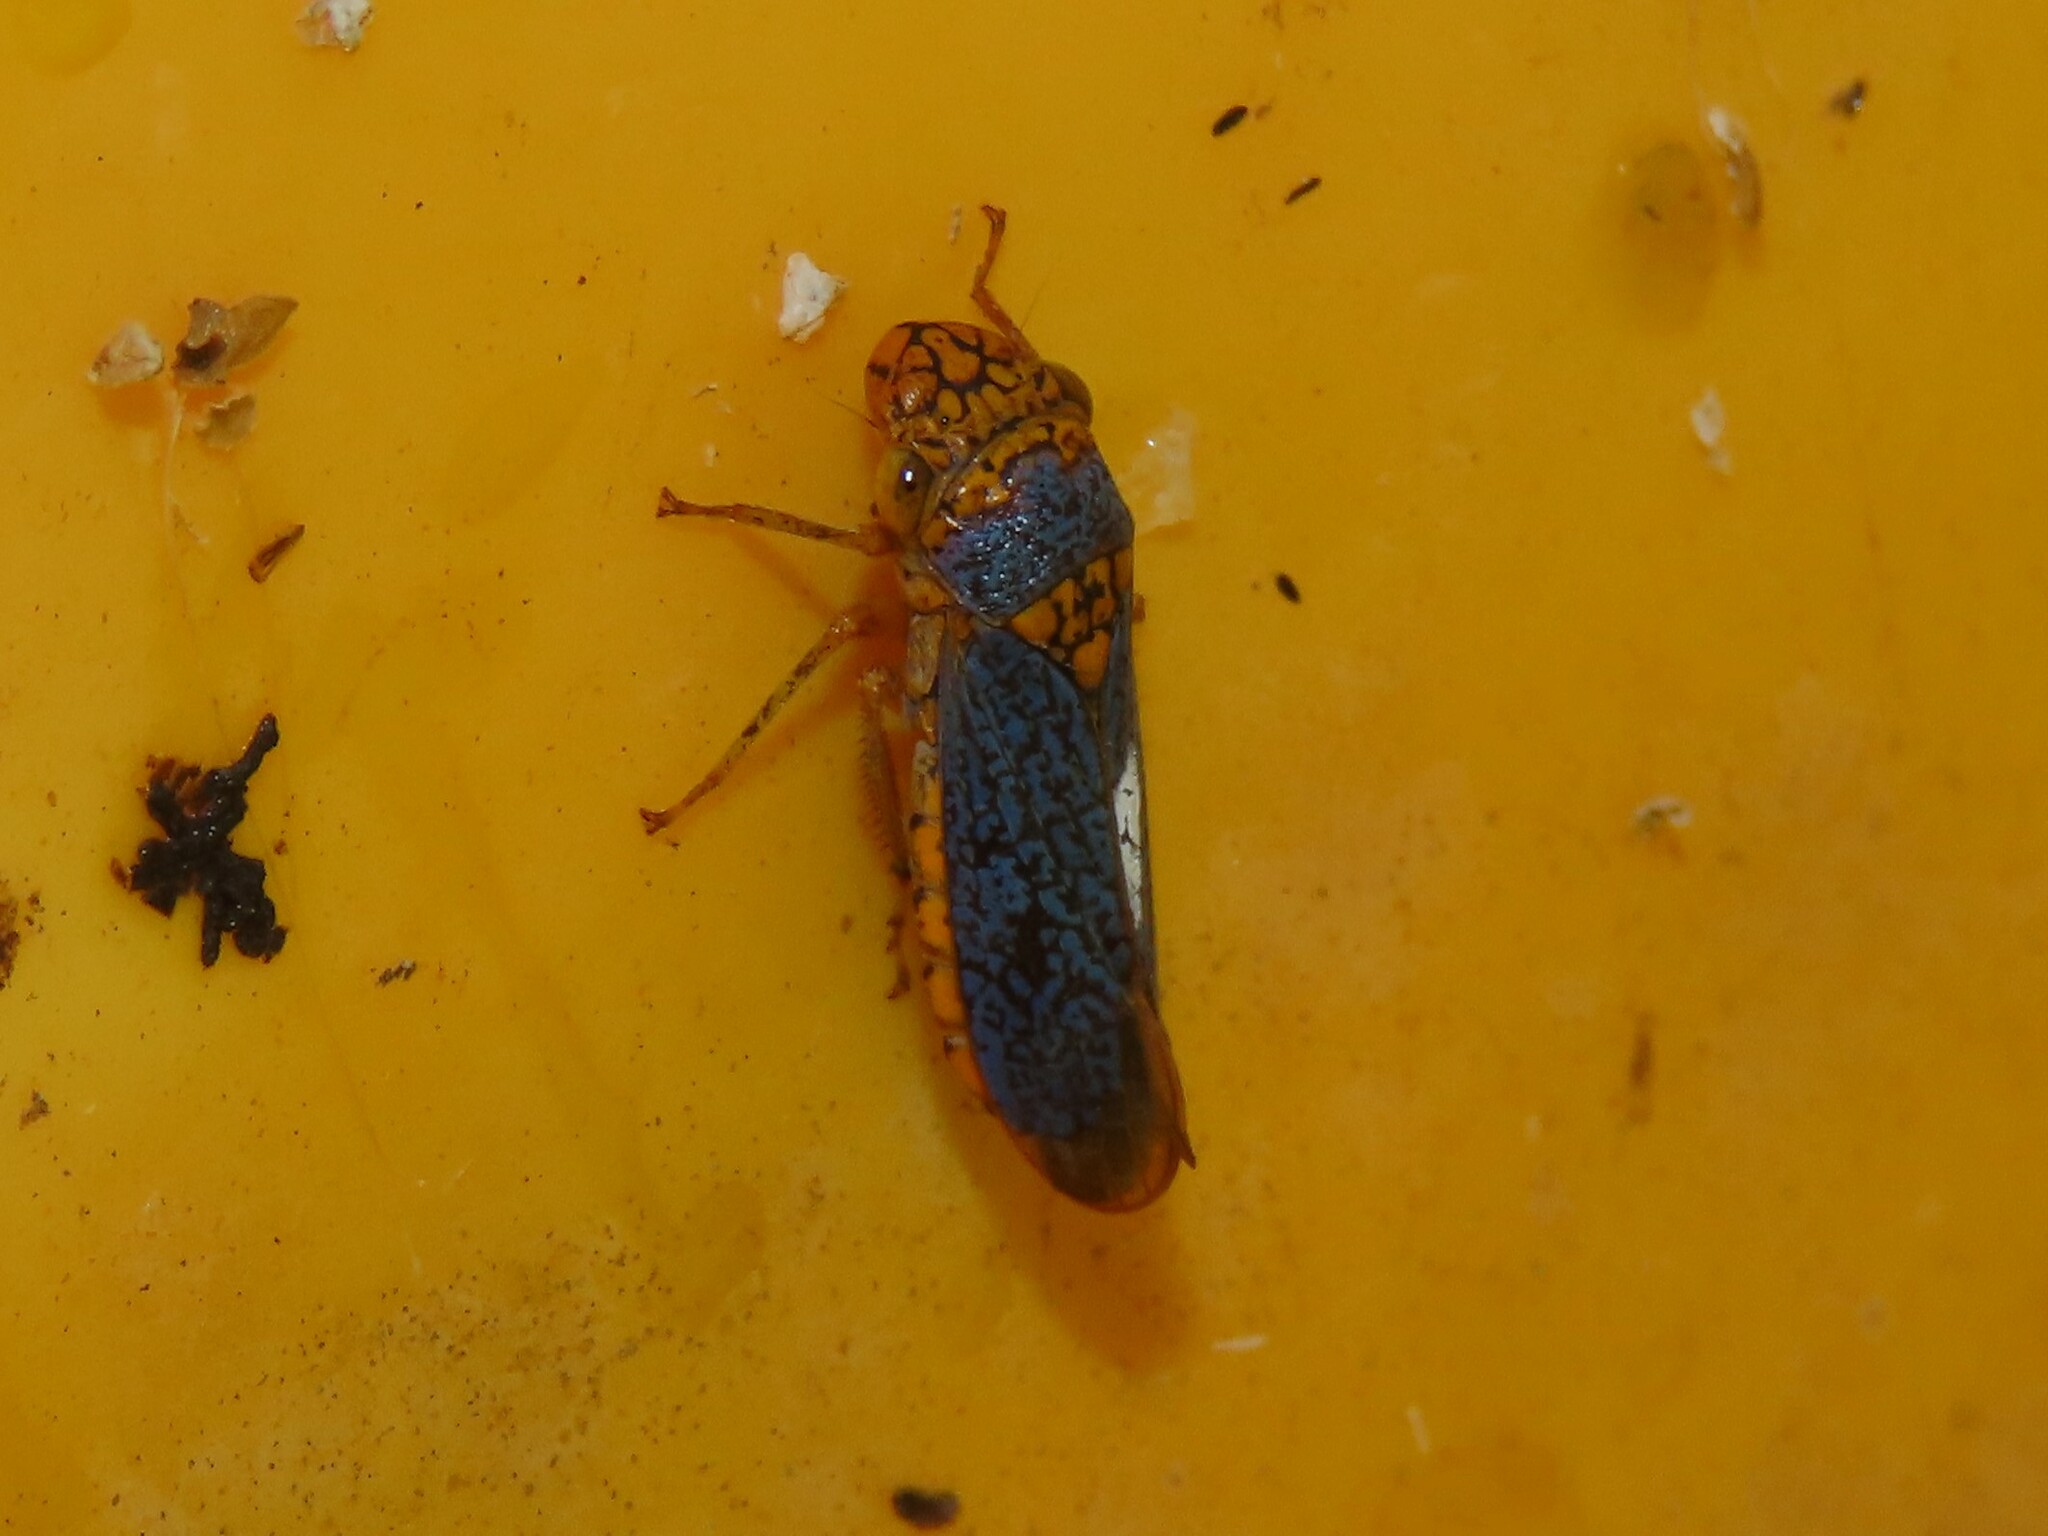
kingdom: Animalia
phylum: Arthropoda
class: Insecta
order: Hemiptera
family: Cicadellidae
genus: Oncometopia
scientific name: Oncometopia orbona
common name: Broad-headed sharpshooter
